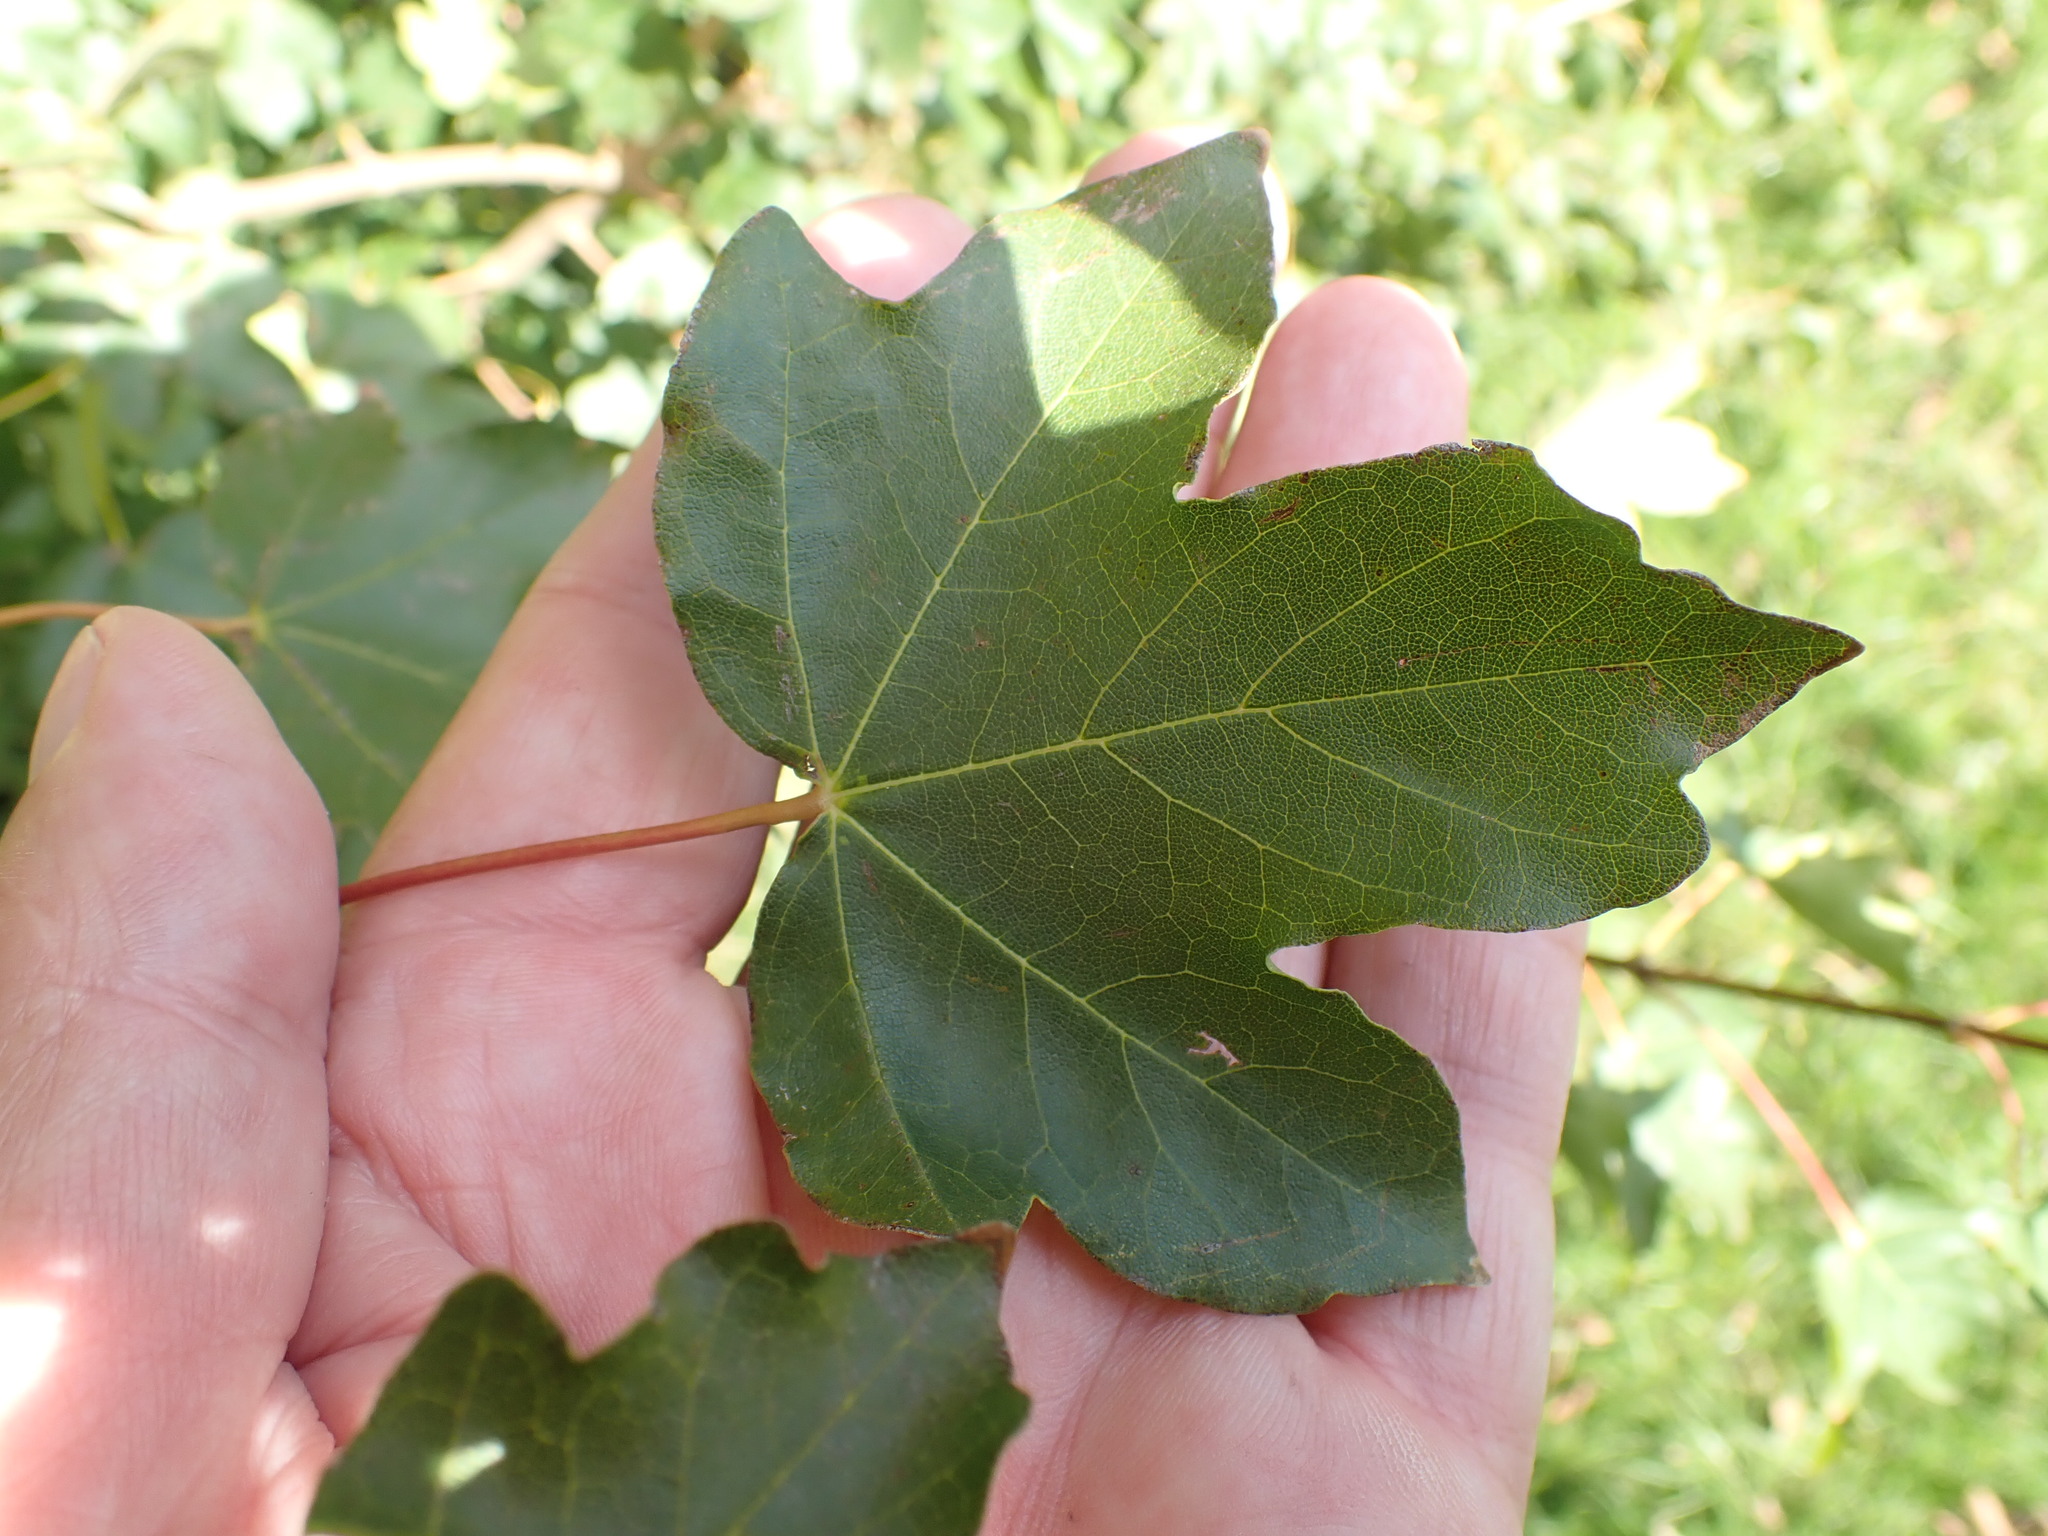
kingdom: Plantae
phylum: Tracheophyta
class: Magnoliopsida
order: Sapindales
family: Sapindaceae
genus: Acer
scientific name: Acer campestre
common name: Field maple
